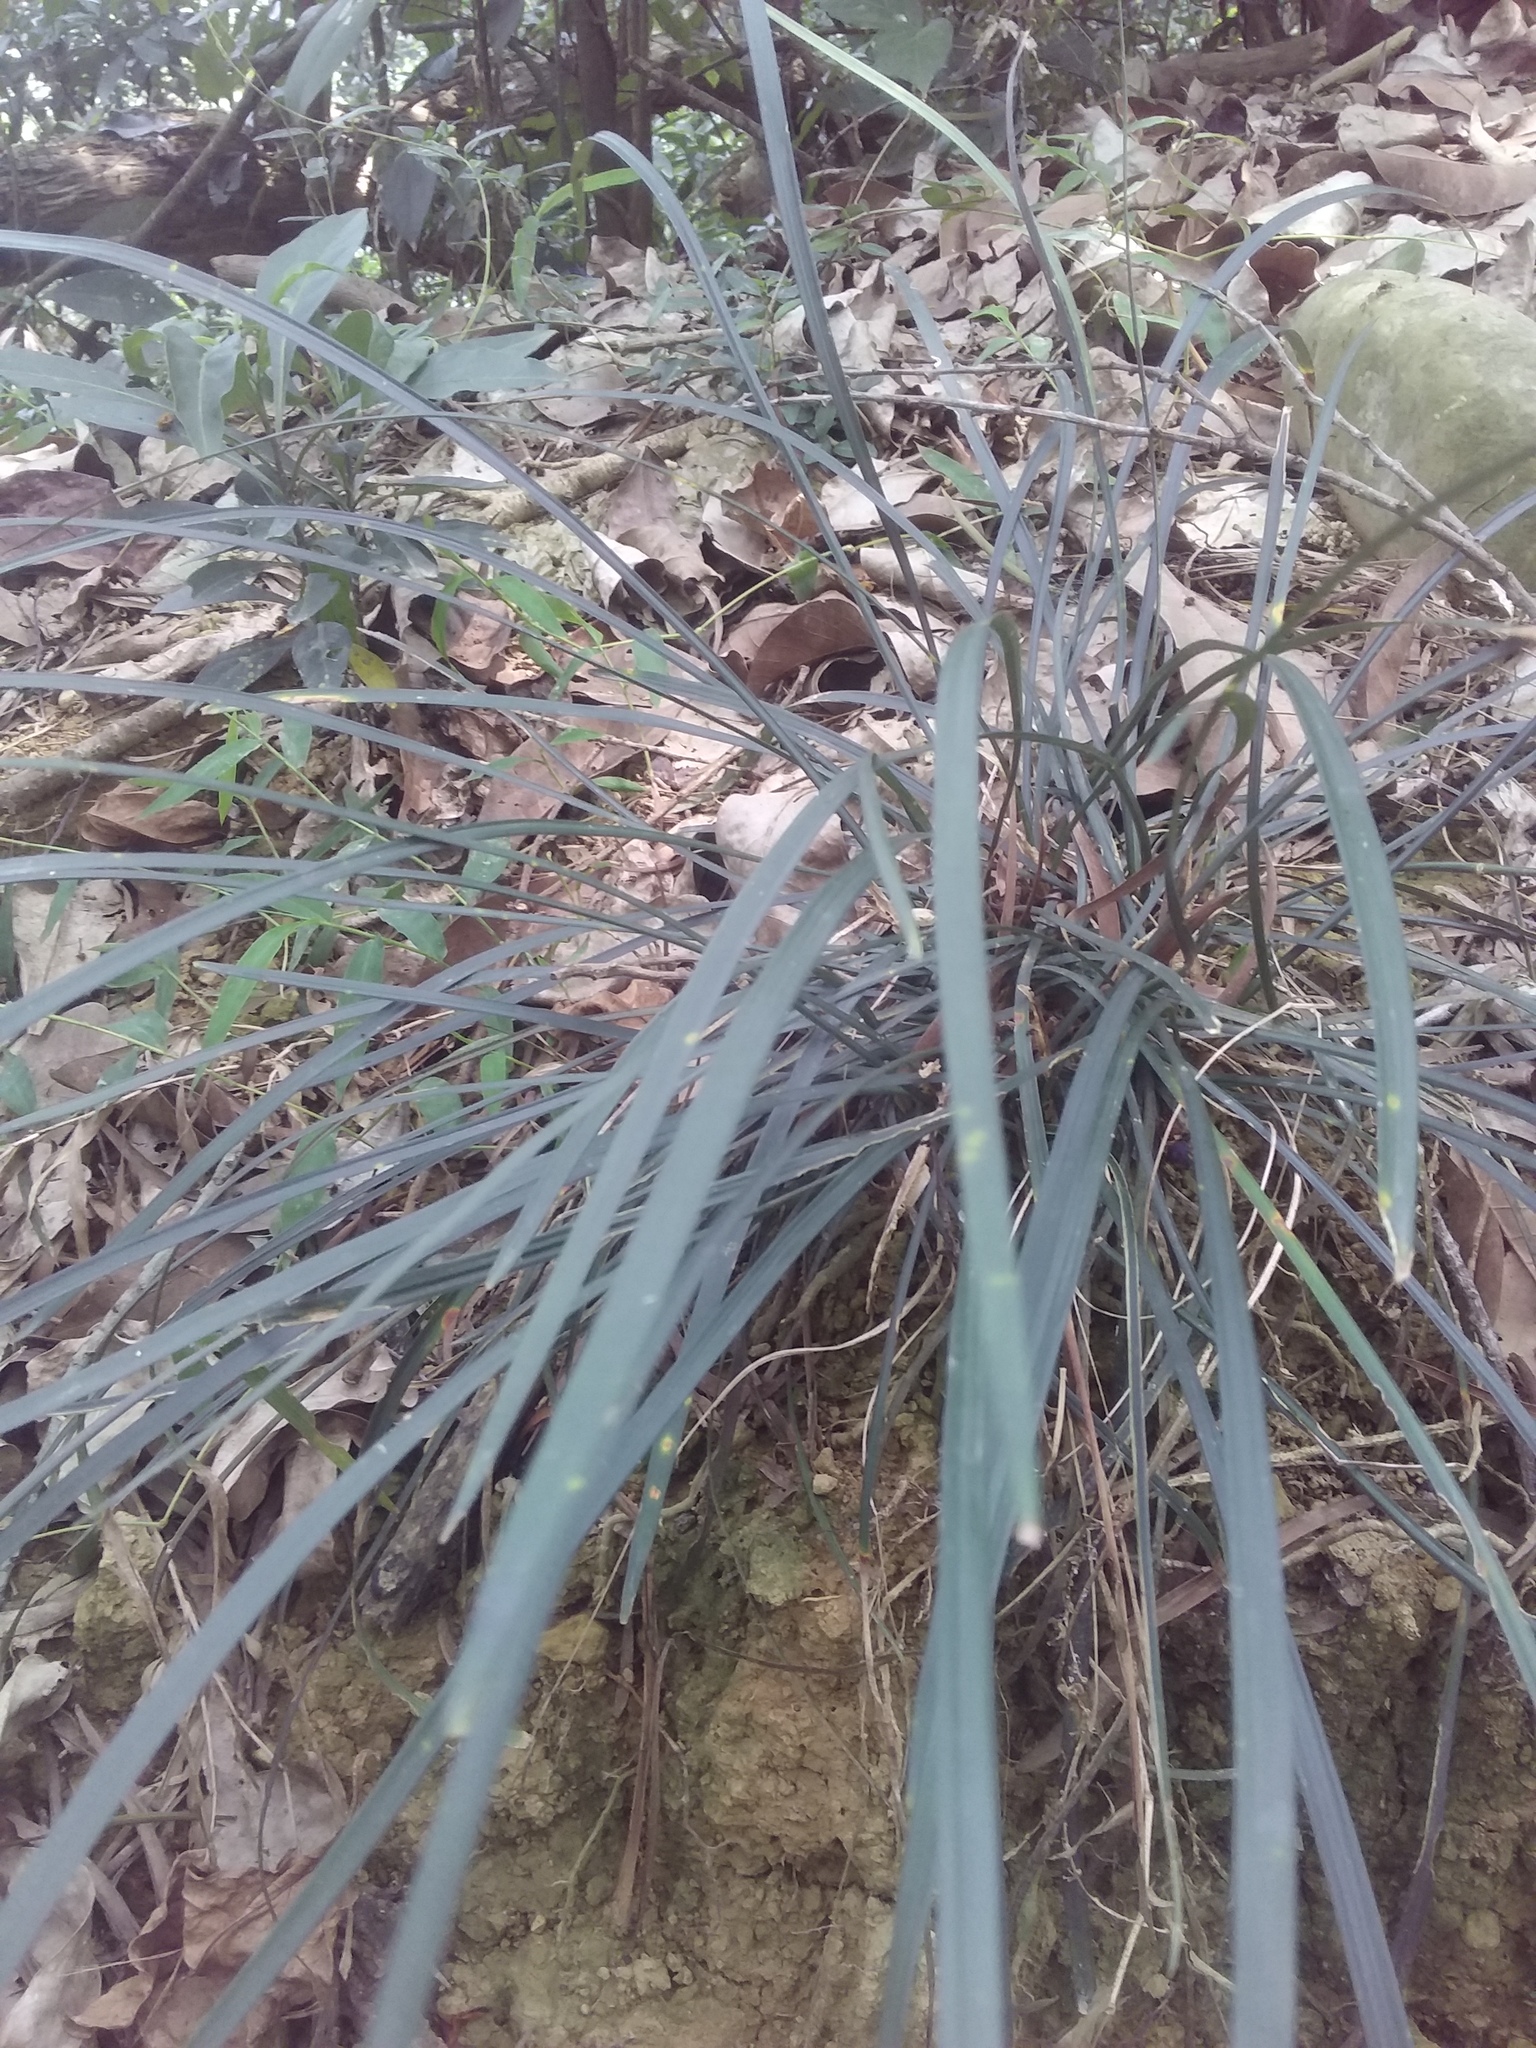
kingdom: Plantae
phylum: Tracheophyta
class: Liliopsida
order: Asparagales
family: Asparagaceae
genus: Ophiopogon
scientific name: Ophiopogon reversus
